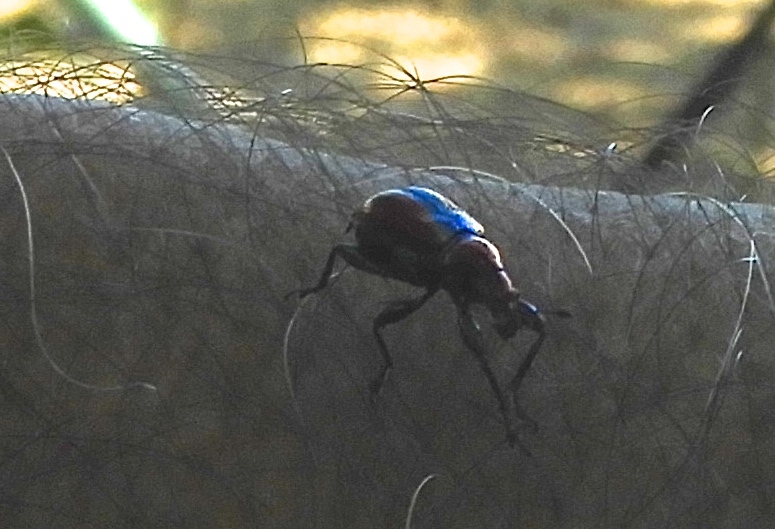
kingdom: Animalia
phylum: Arthropoda
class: Insecta
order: Coleoptera
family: Attelabidae
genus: Pilolabus
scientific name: Pilolabus viridans
